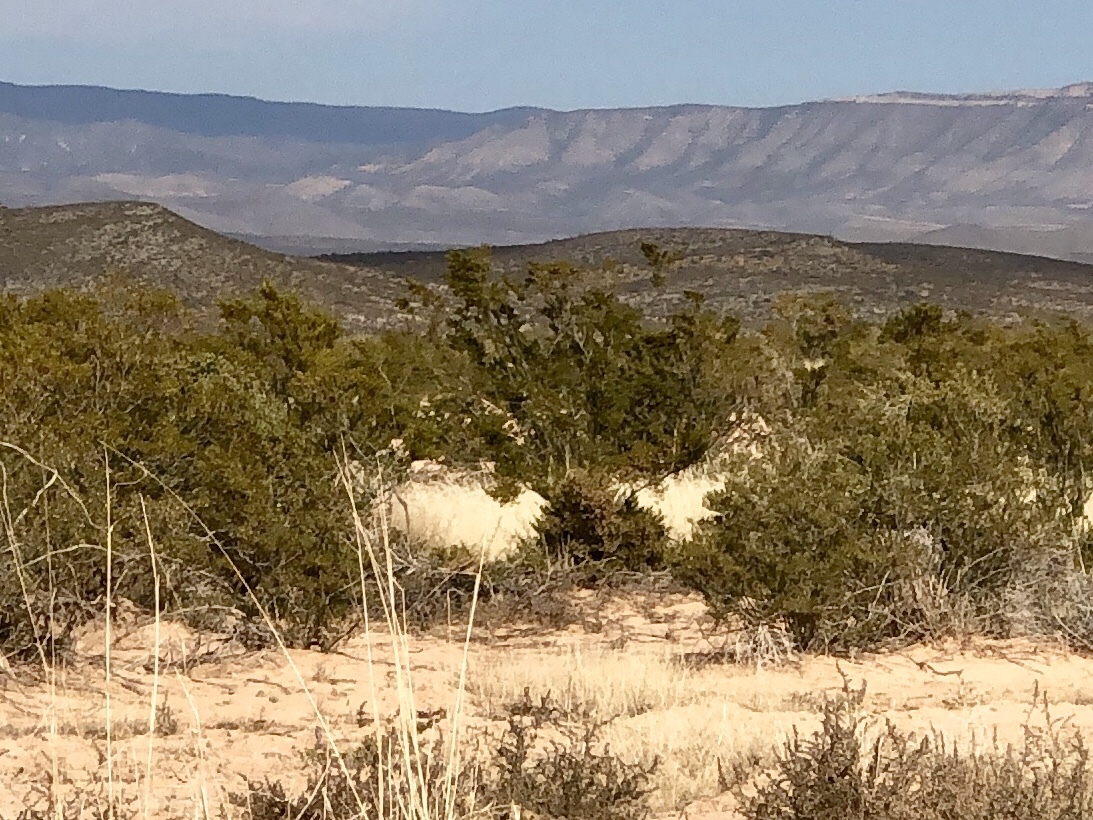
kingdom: Plantae
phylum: Tracheophyta
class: Magnoliopsida
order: Zygophyllales
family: Zygophyllaceae
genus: Larrea
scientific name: Larrea tridentata
